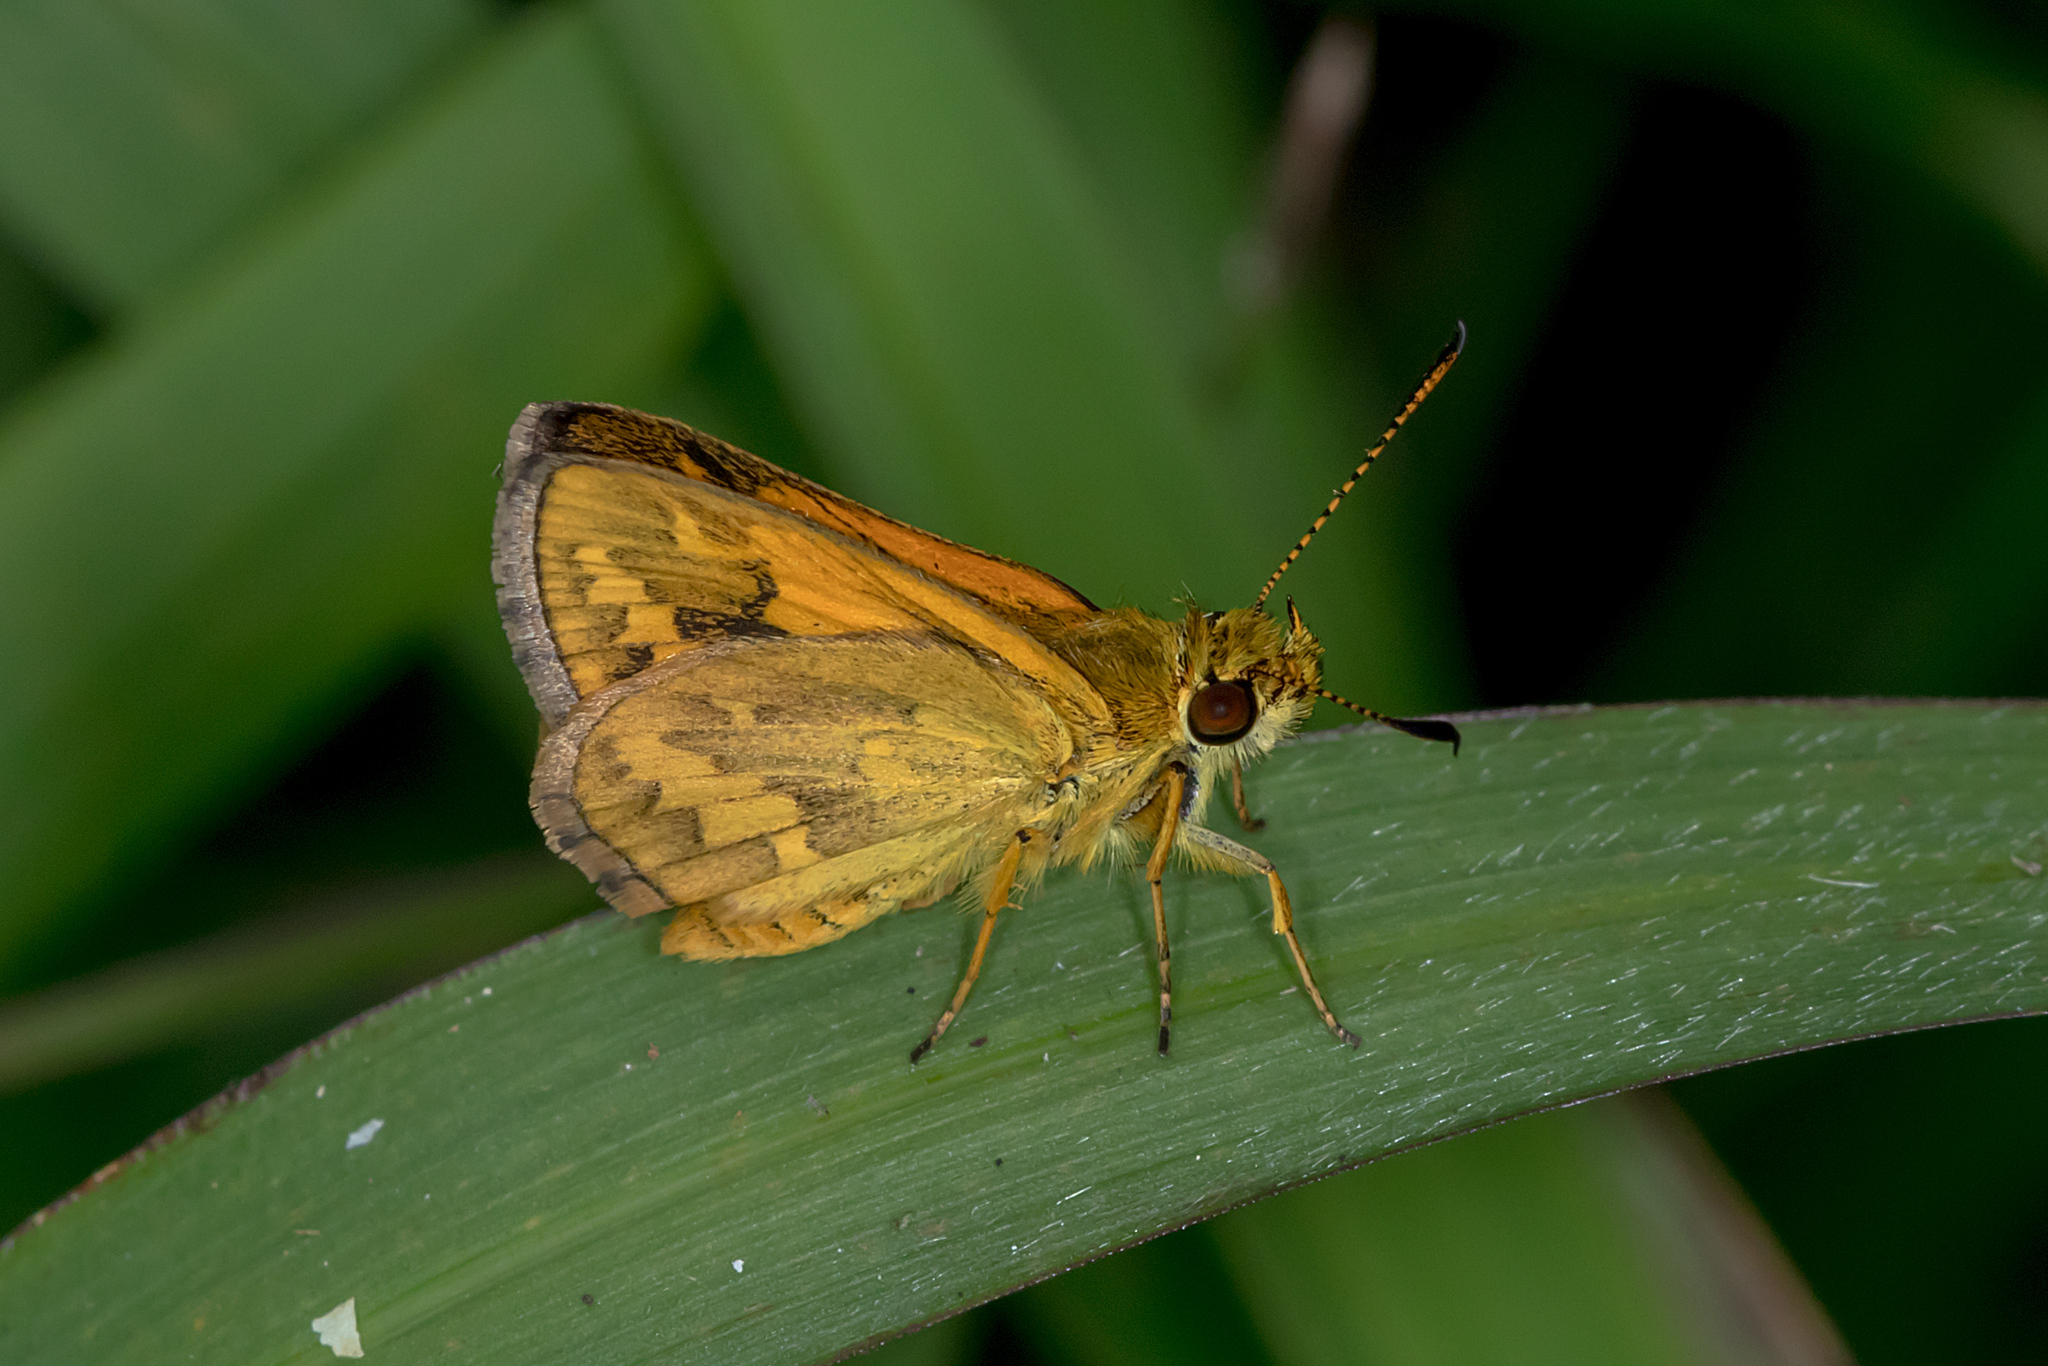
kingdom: Animalia
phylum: Arthropoda
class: Insecta
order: Lepidoptera
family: Hesperiidae
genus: Suniana
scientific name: Suniana sunias
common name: Wide-brand grass-dart
